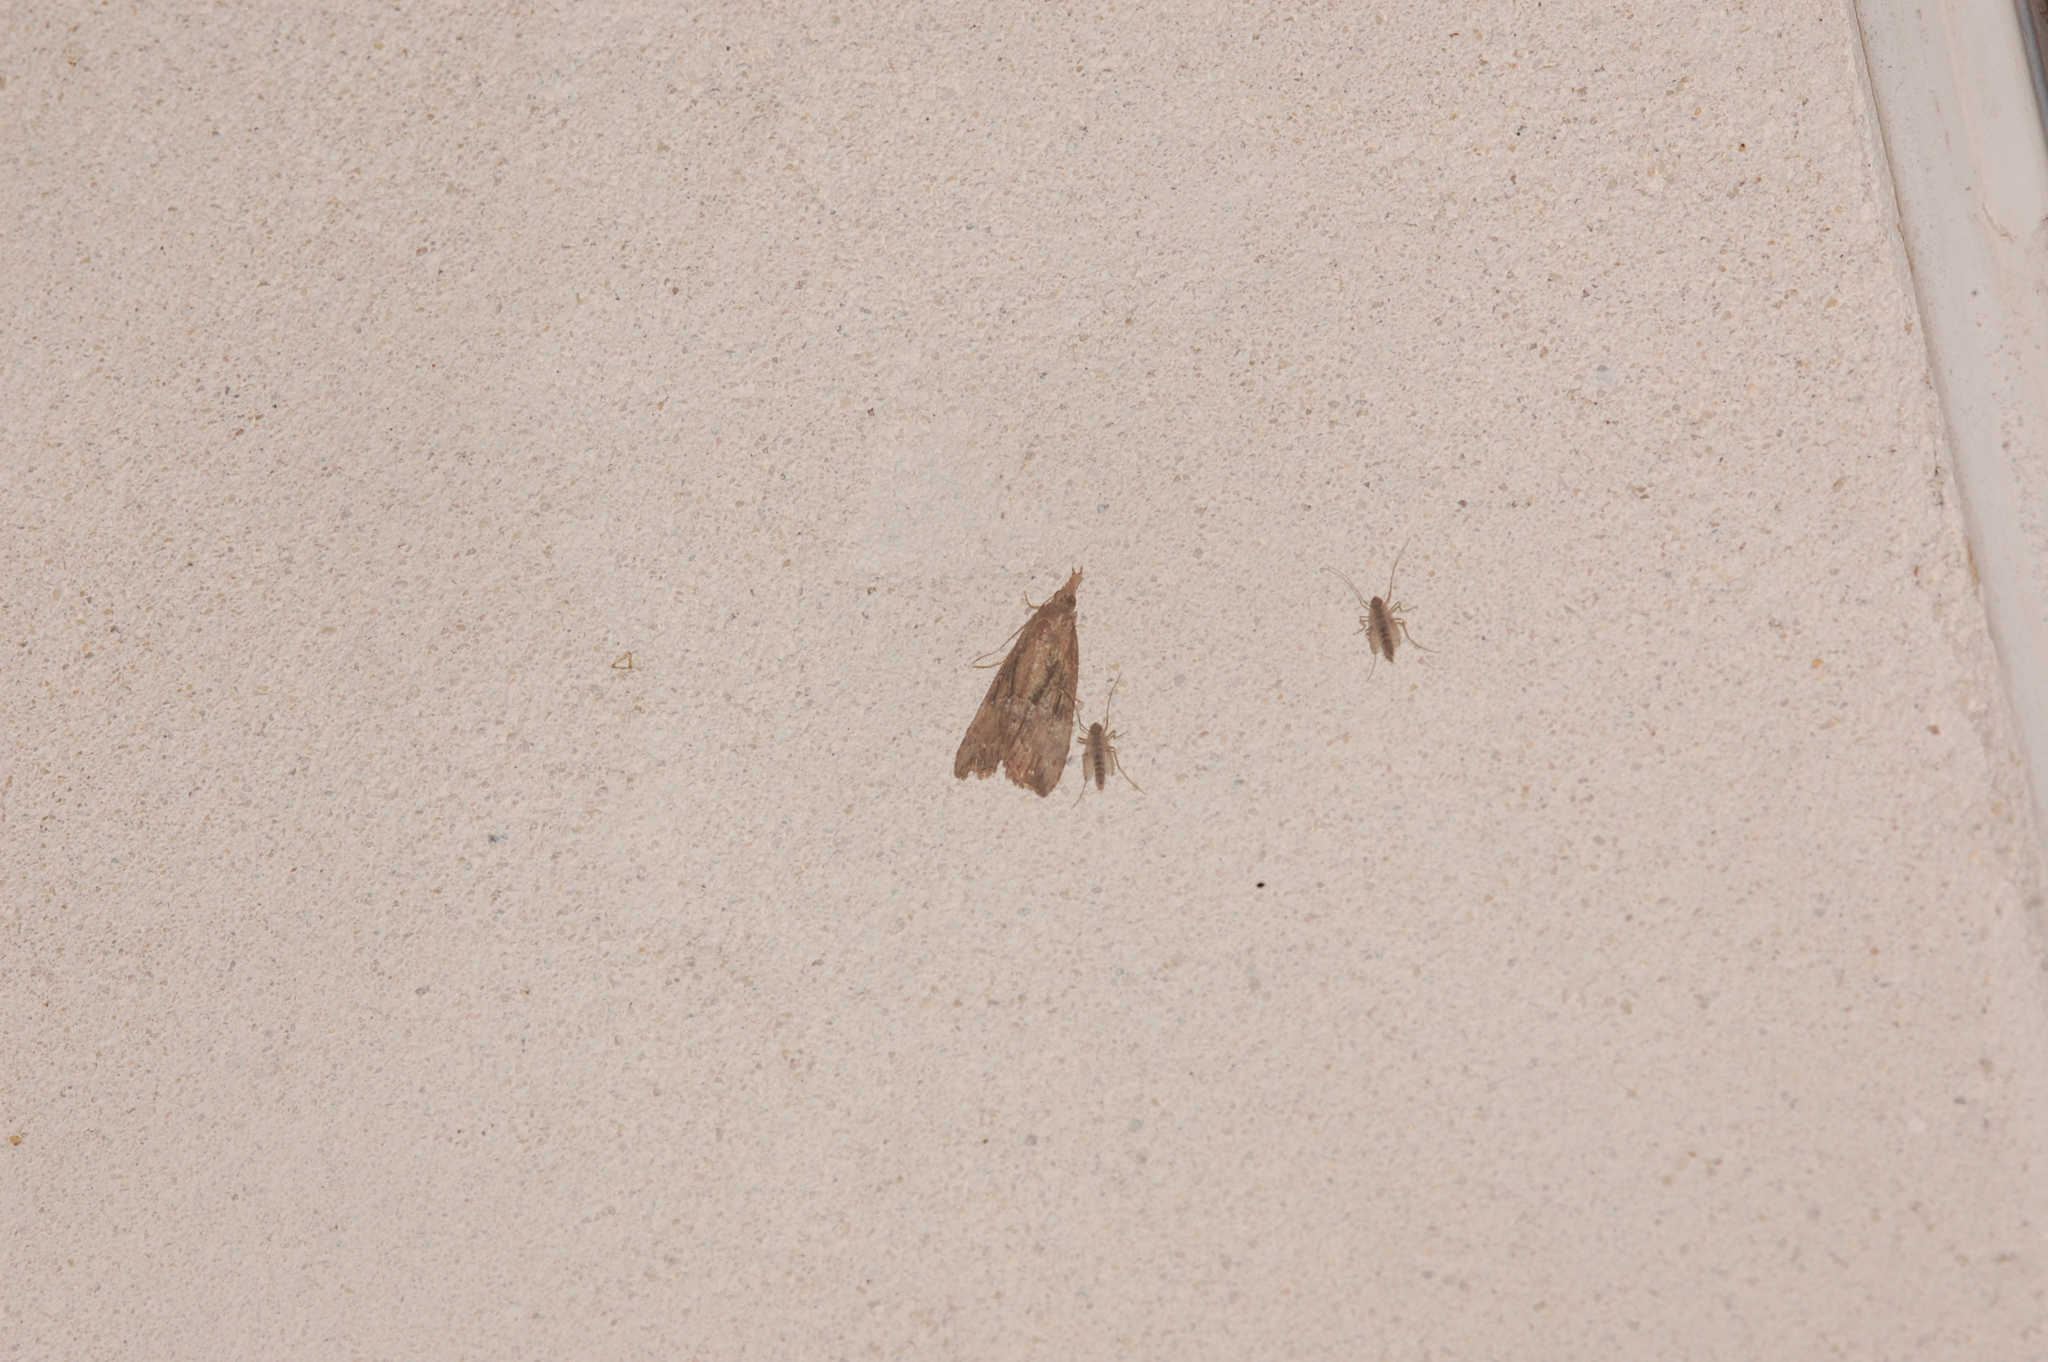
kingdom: Animalia
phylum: Arthropoda
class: Insecta
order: Lepidoptera
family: Erebidae
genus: Hypena
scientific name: Hypena scabra
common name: Green cloverworm
